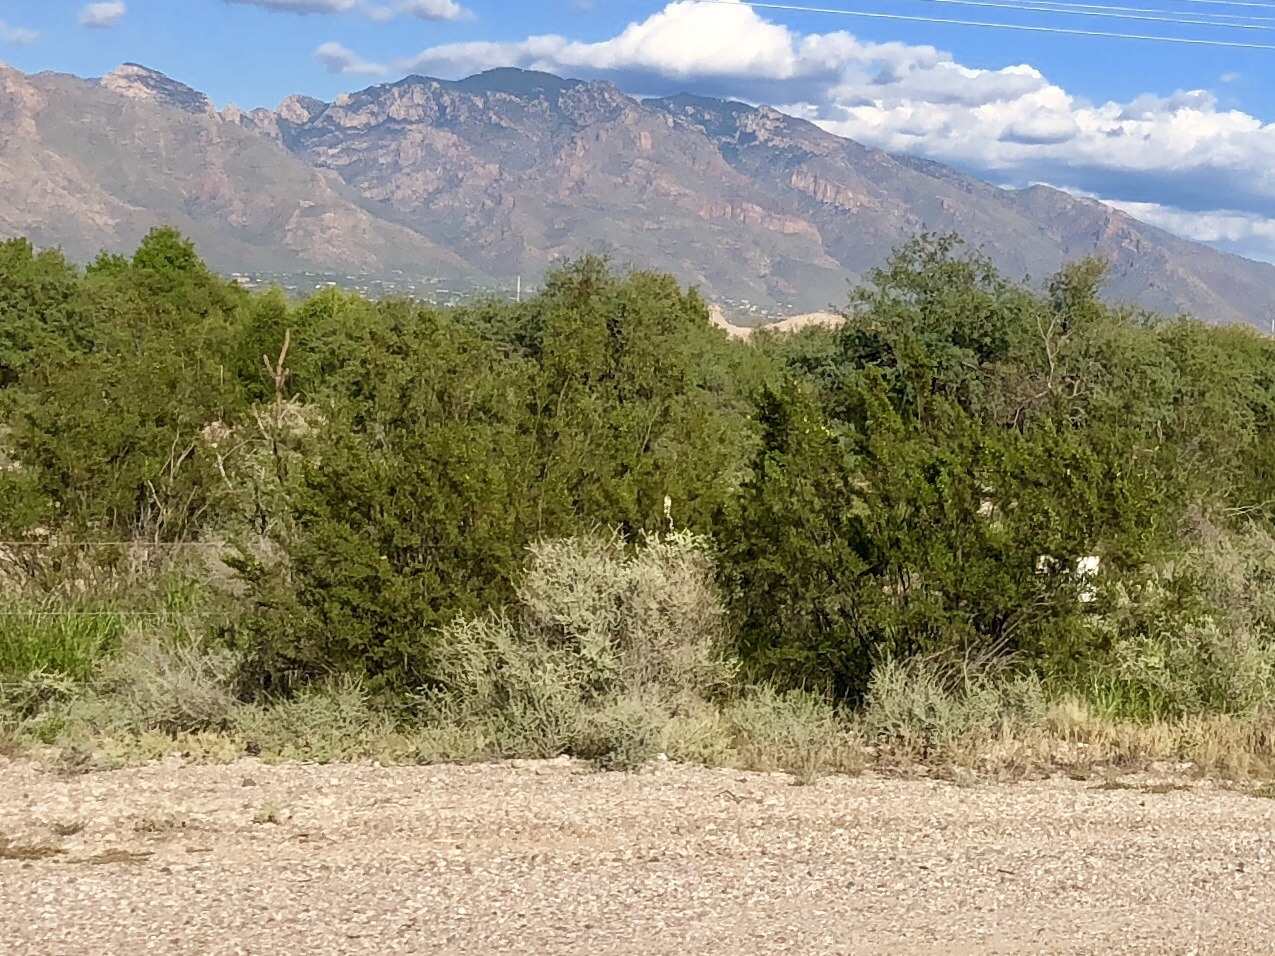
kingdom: Plantae
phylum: Tracheophyta
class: Magnoliopsida
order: Zygophyllales
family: Zygophyllaceae
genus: Larrea
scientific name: Larrea tridentata
